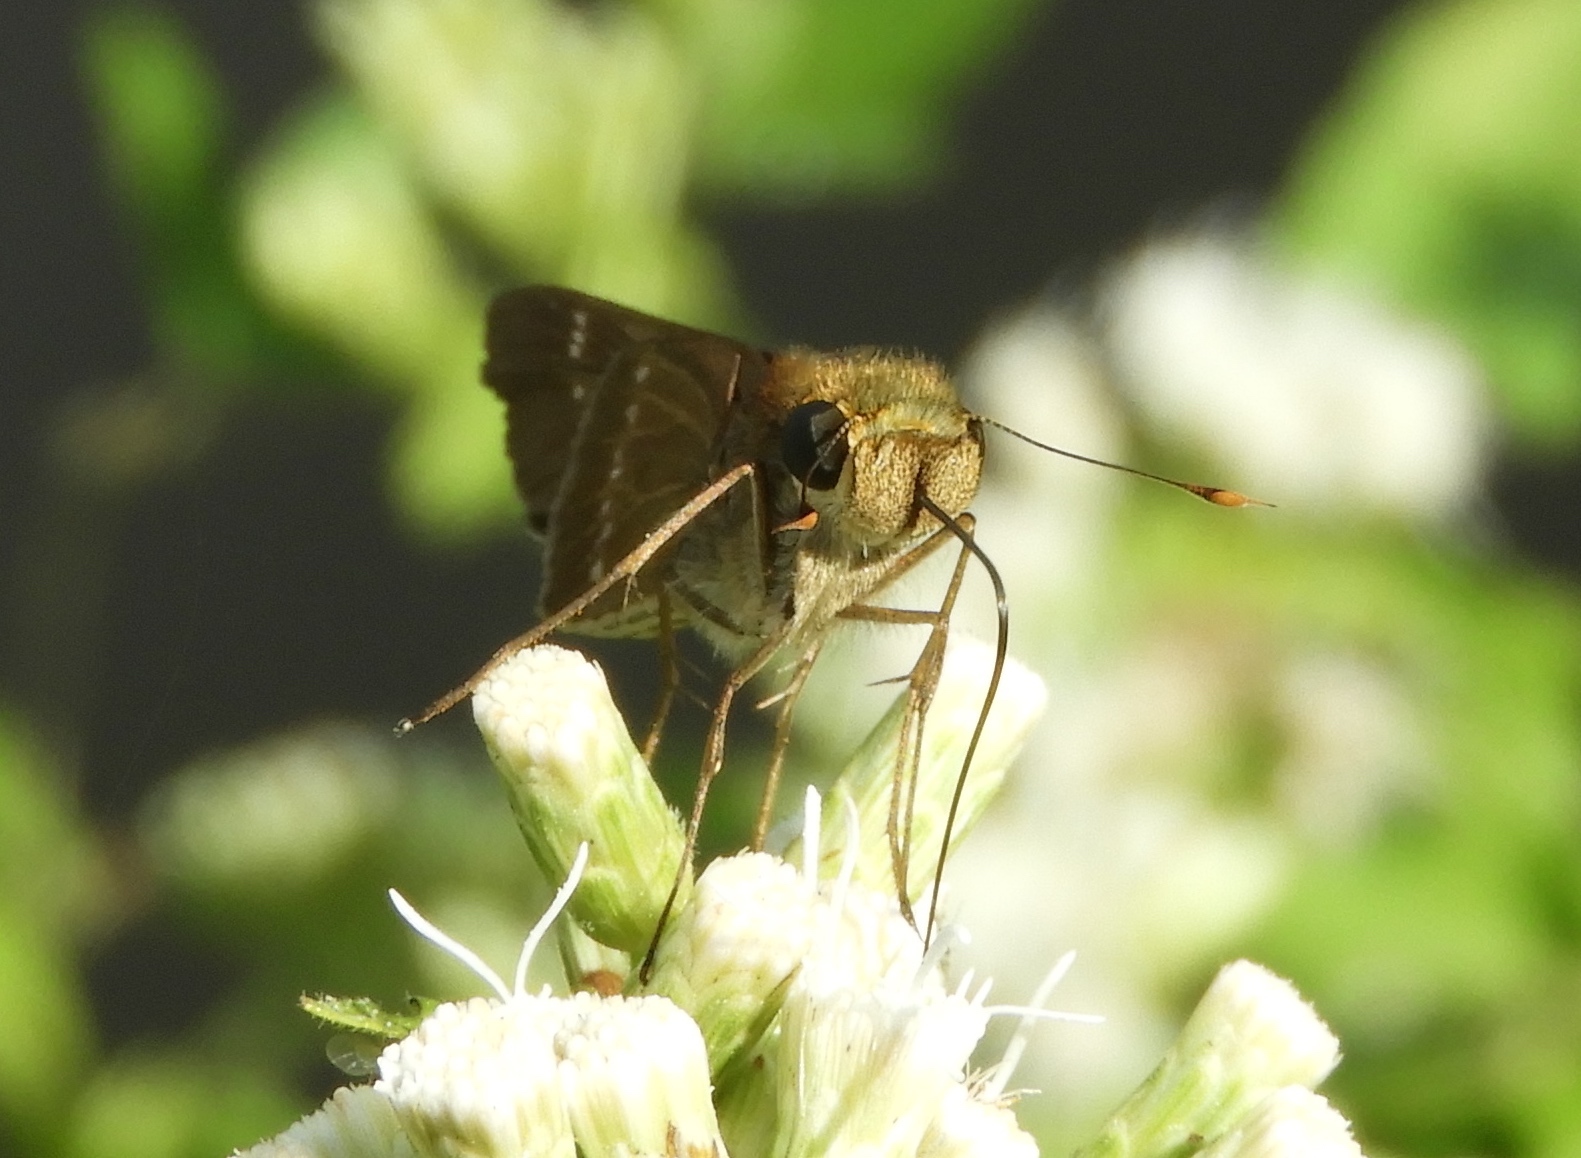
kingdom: Animalia
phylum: Arthropoda
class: Insecta
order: Lepidoptera
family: Hesperiidae
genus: Turesis
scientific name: Turesis lucas
